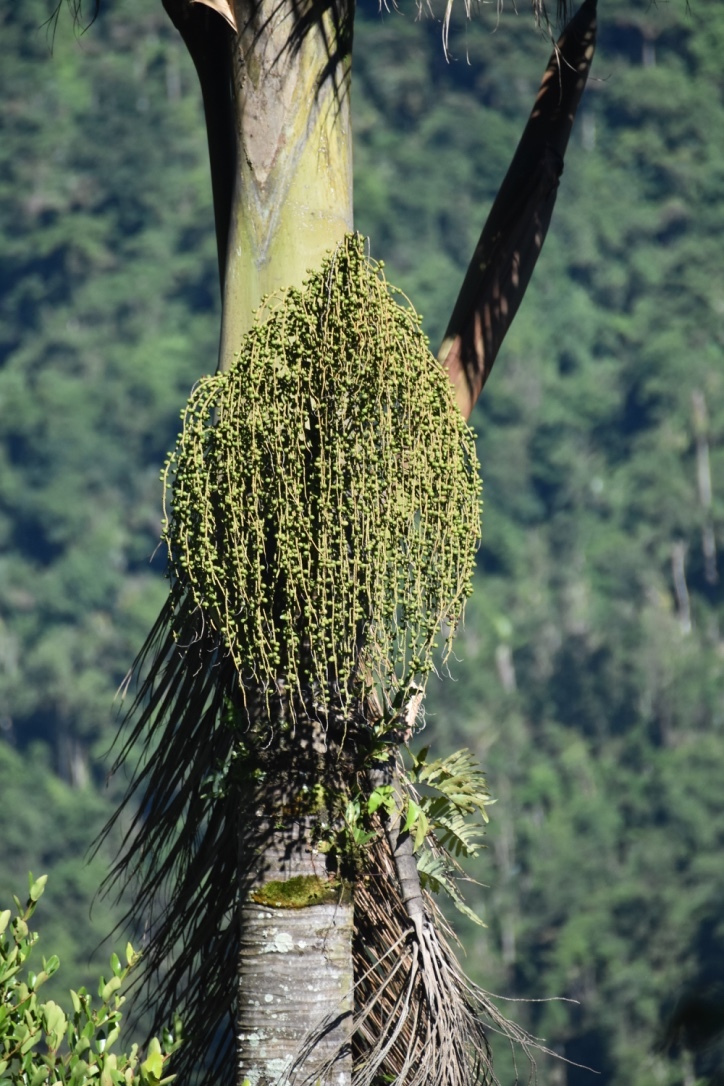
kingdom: Plantae
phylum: Tracheophyta
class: Liliopsida
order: Arecales
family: Arecaceae
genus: Dictyocaryum
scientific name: Dictyocaryum lamarckianum
